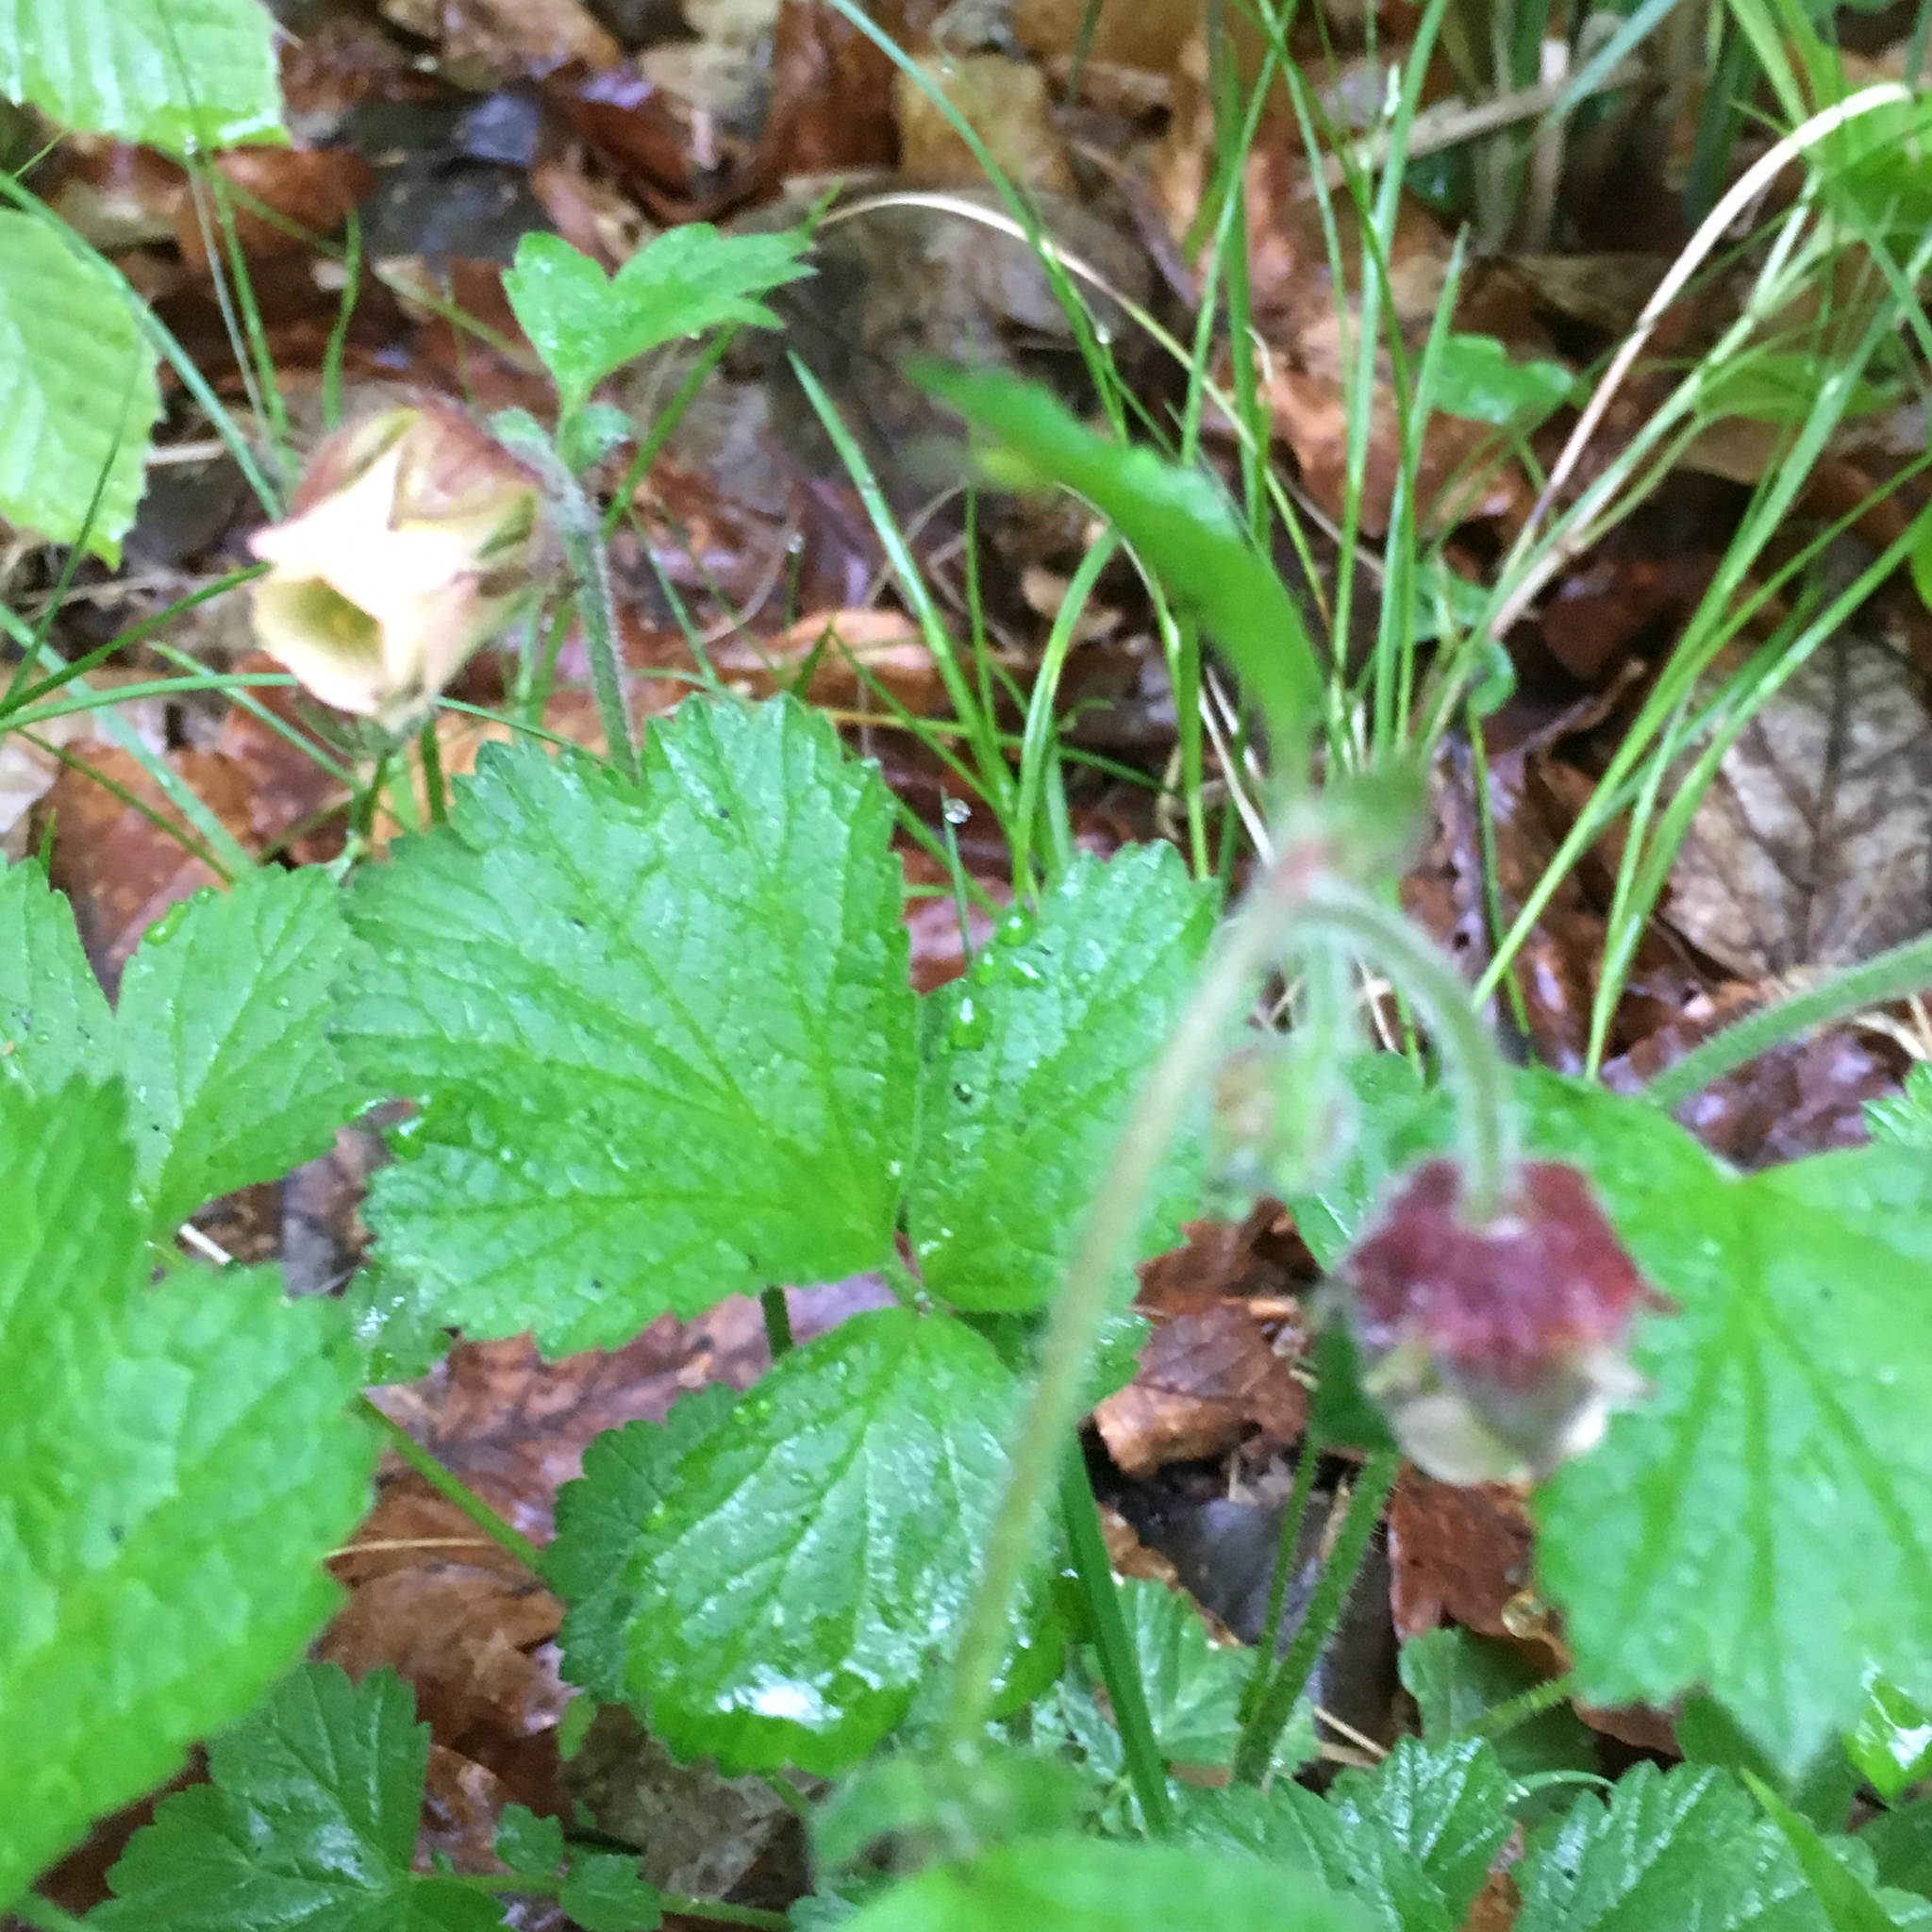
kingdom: Plantae
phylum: Tracheophyta
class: Magnoliopsida
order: Rosales
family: Rosaceae
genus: Geum
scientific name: Geum rivale
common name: Water avens
